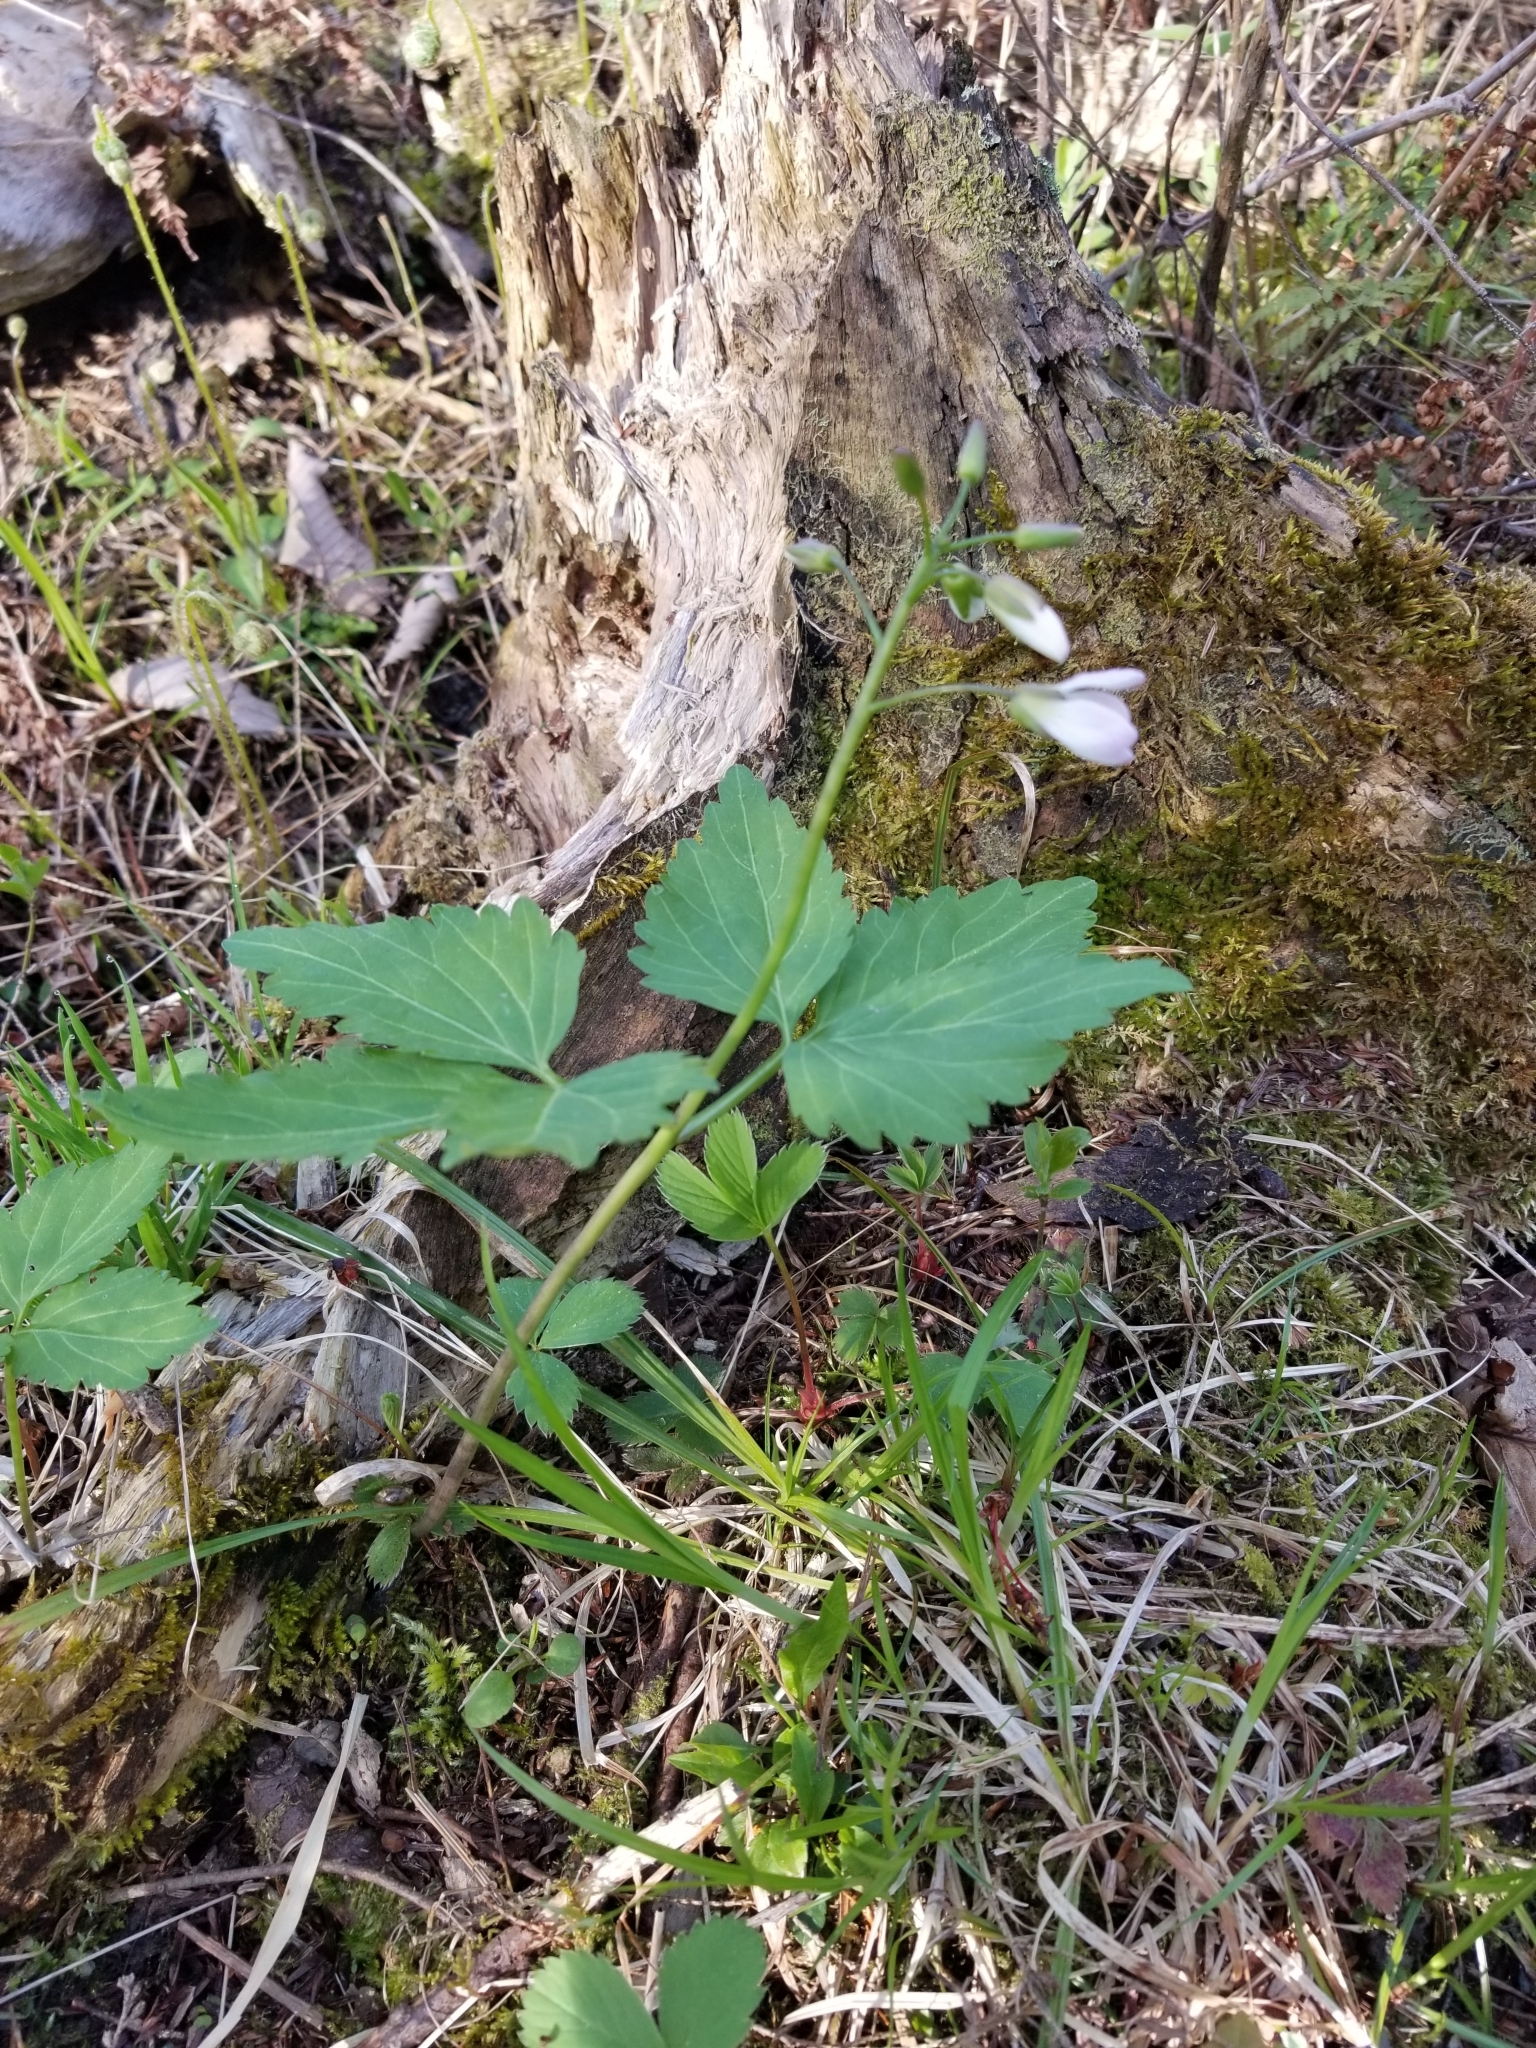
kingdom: Plantae
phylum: Tracheophyta
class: Magnoliopsida
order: Brassicales
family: Brassicaceae
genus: Cardamine
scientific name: Cardamine diphylla
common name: Broad-leaved toothwort
